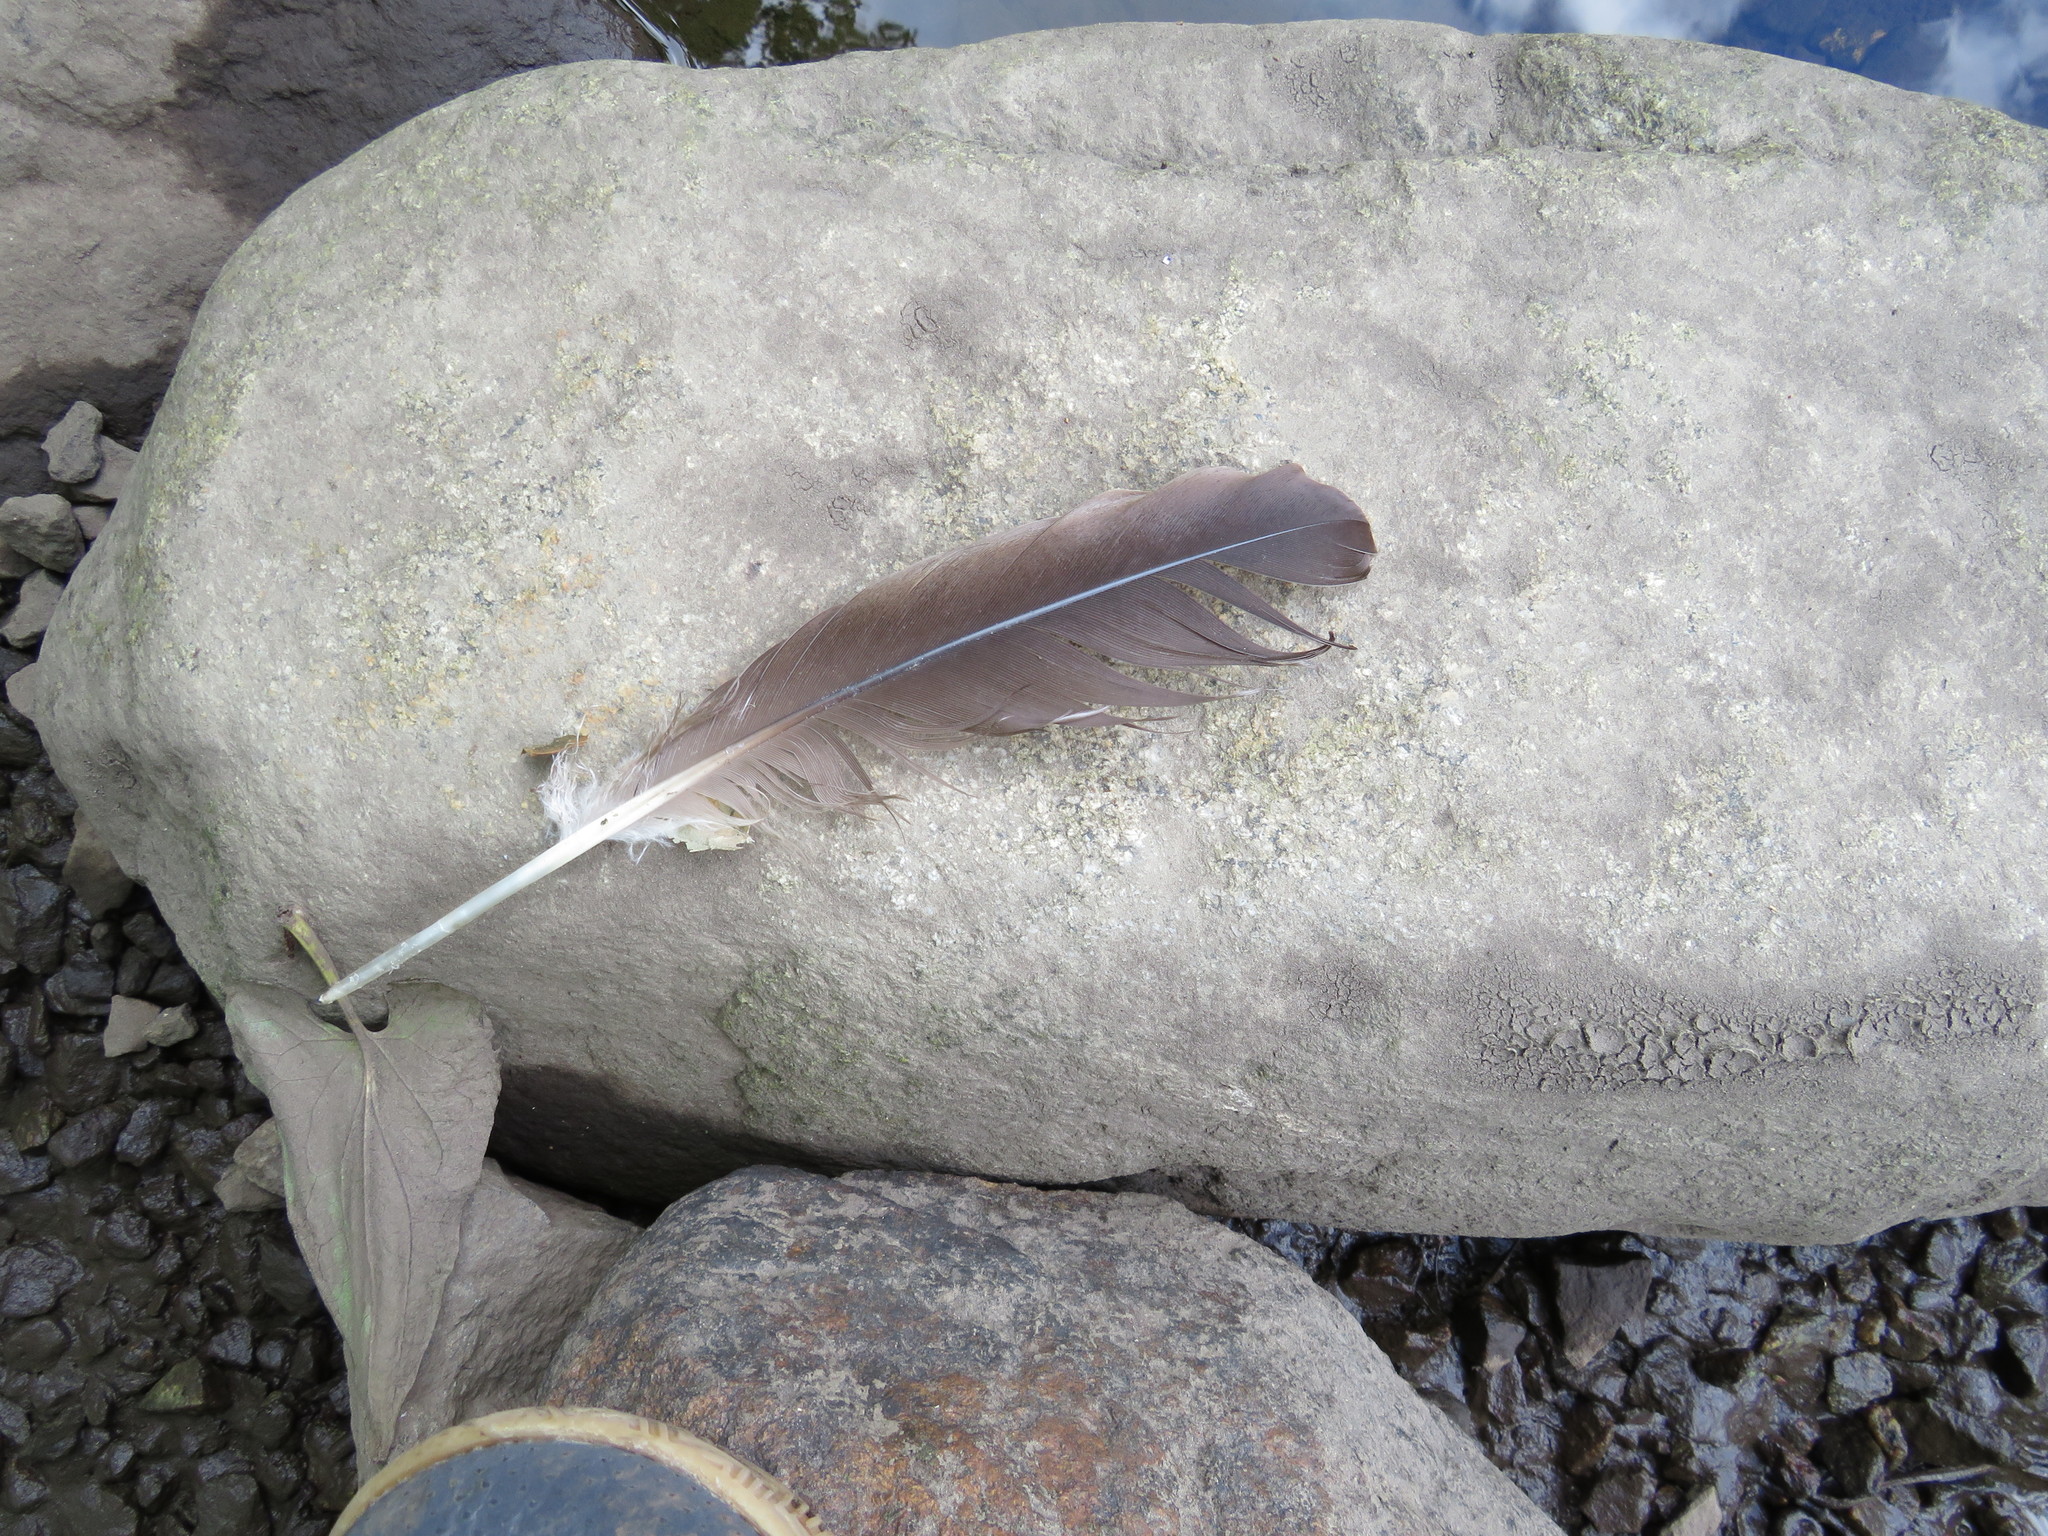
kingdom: Animalia
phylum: Chordata
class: Aves
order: Anseriformes
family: Anatidae
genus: Branta
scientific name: Branta canadensis
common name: Canada goose
